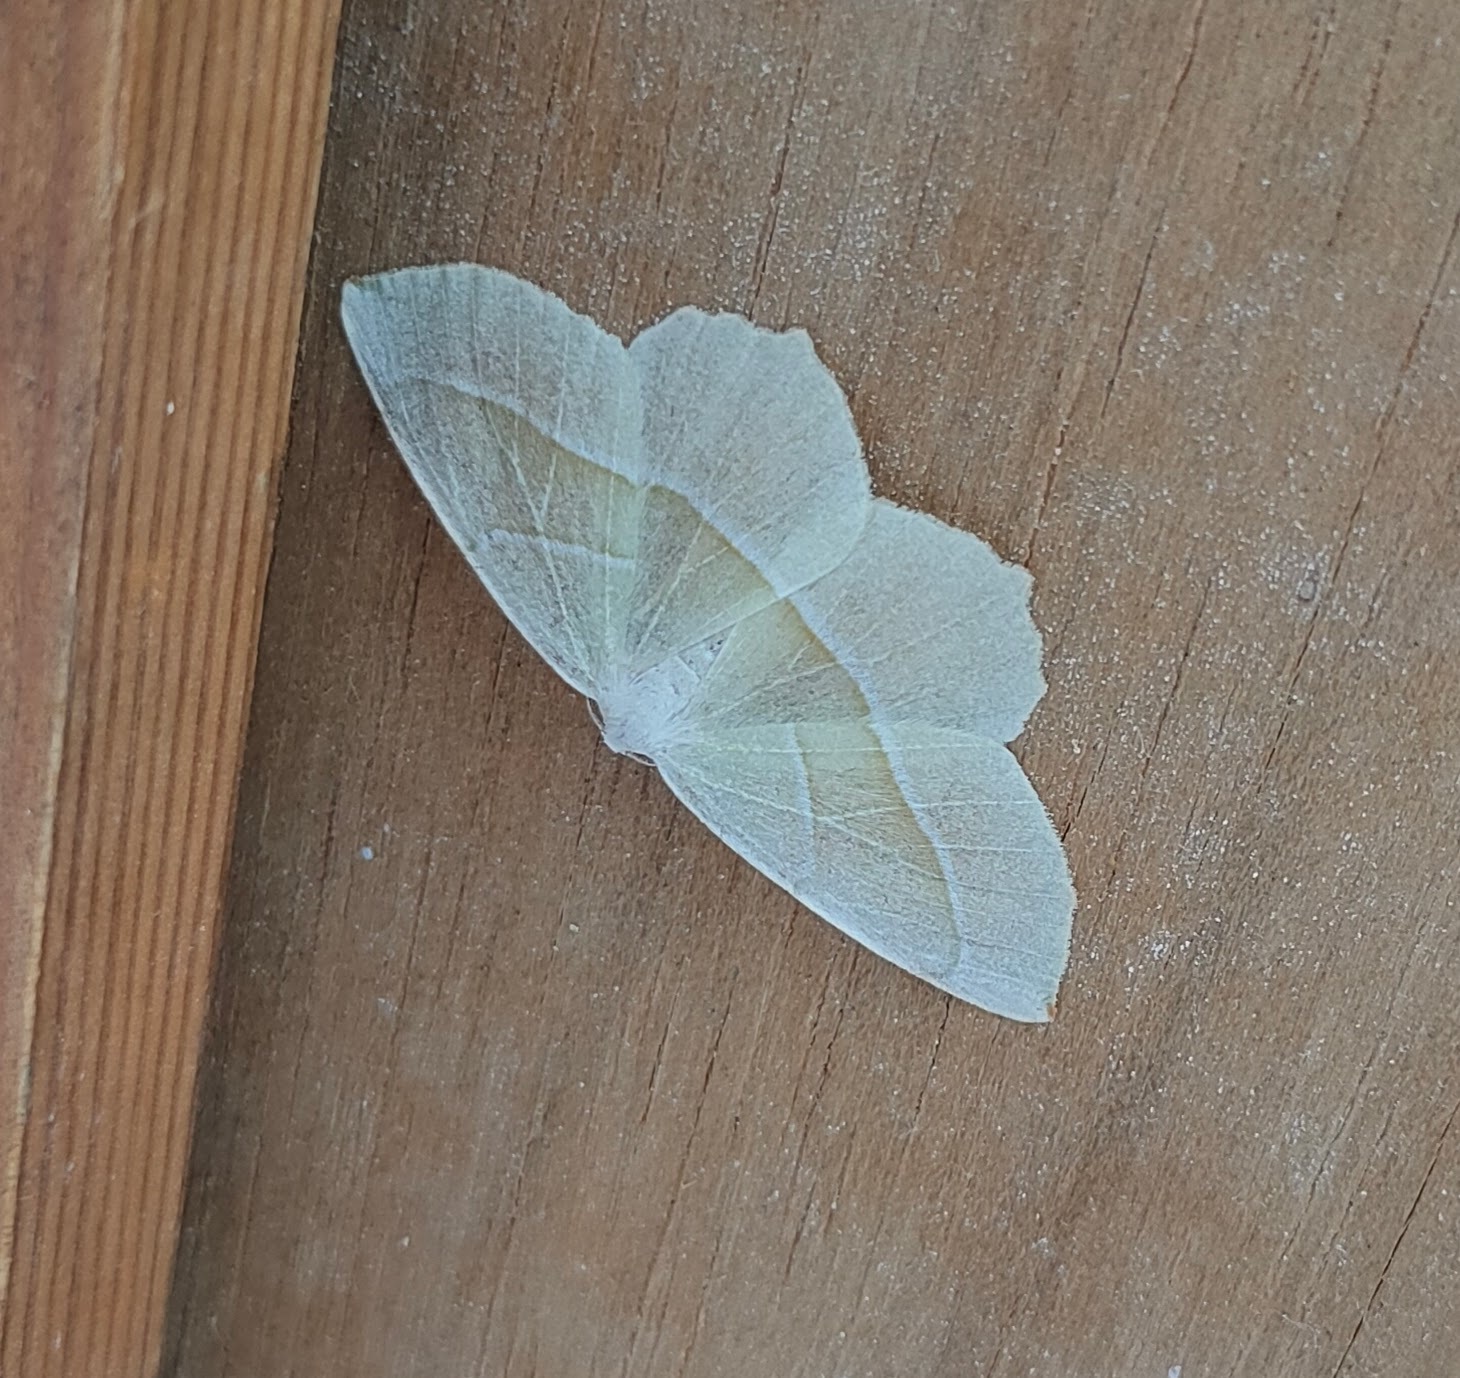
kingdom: Animalia
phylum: Arthropoda
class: Insecta
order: Lepidoptera
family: Geometridae
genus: Campaea
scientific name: Campaea margaritaria
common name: Light emerald
